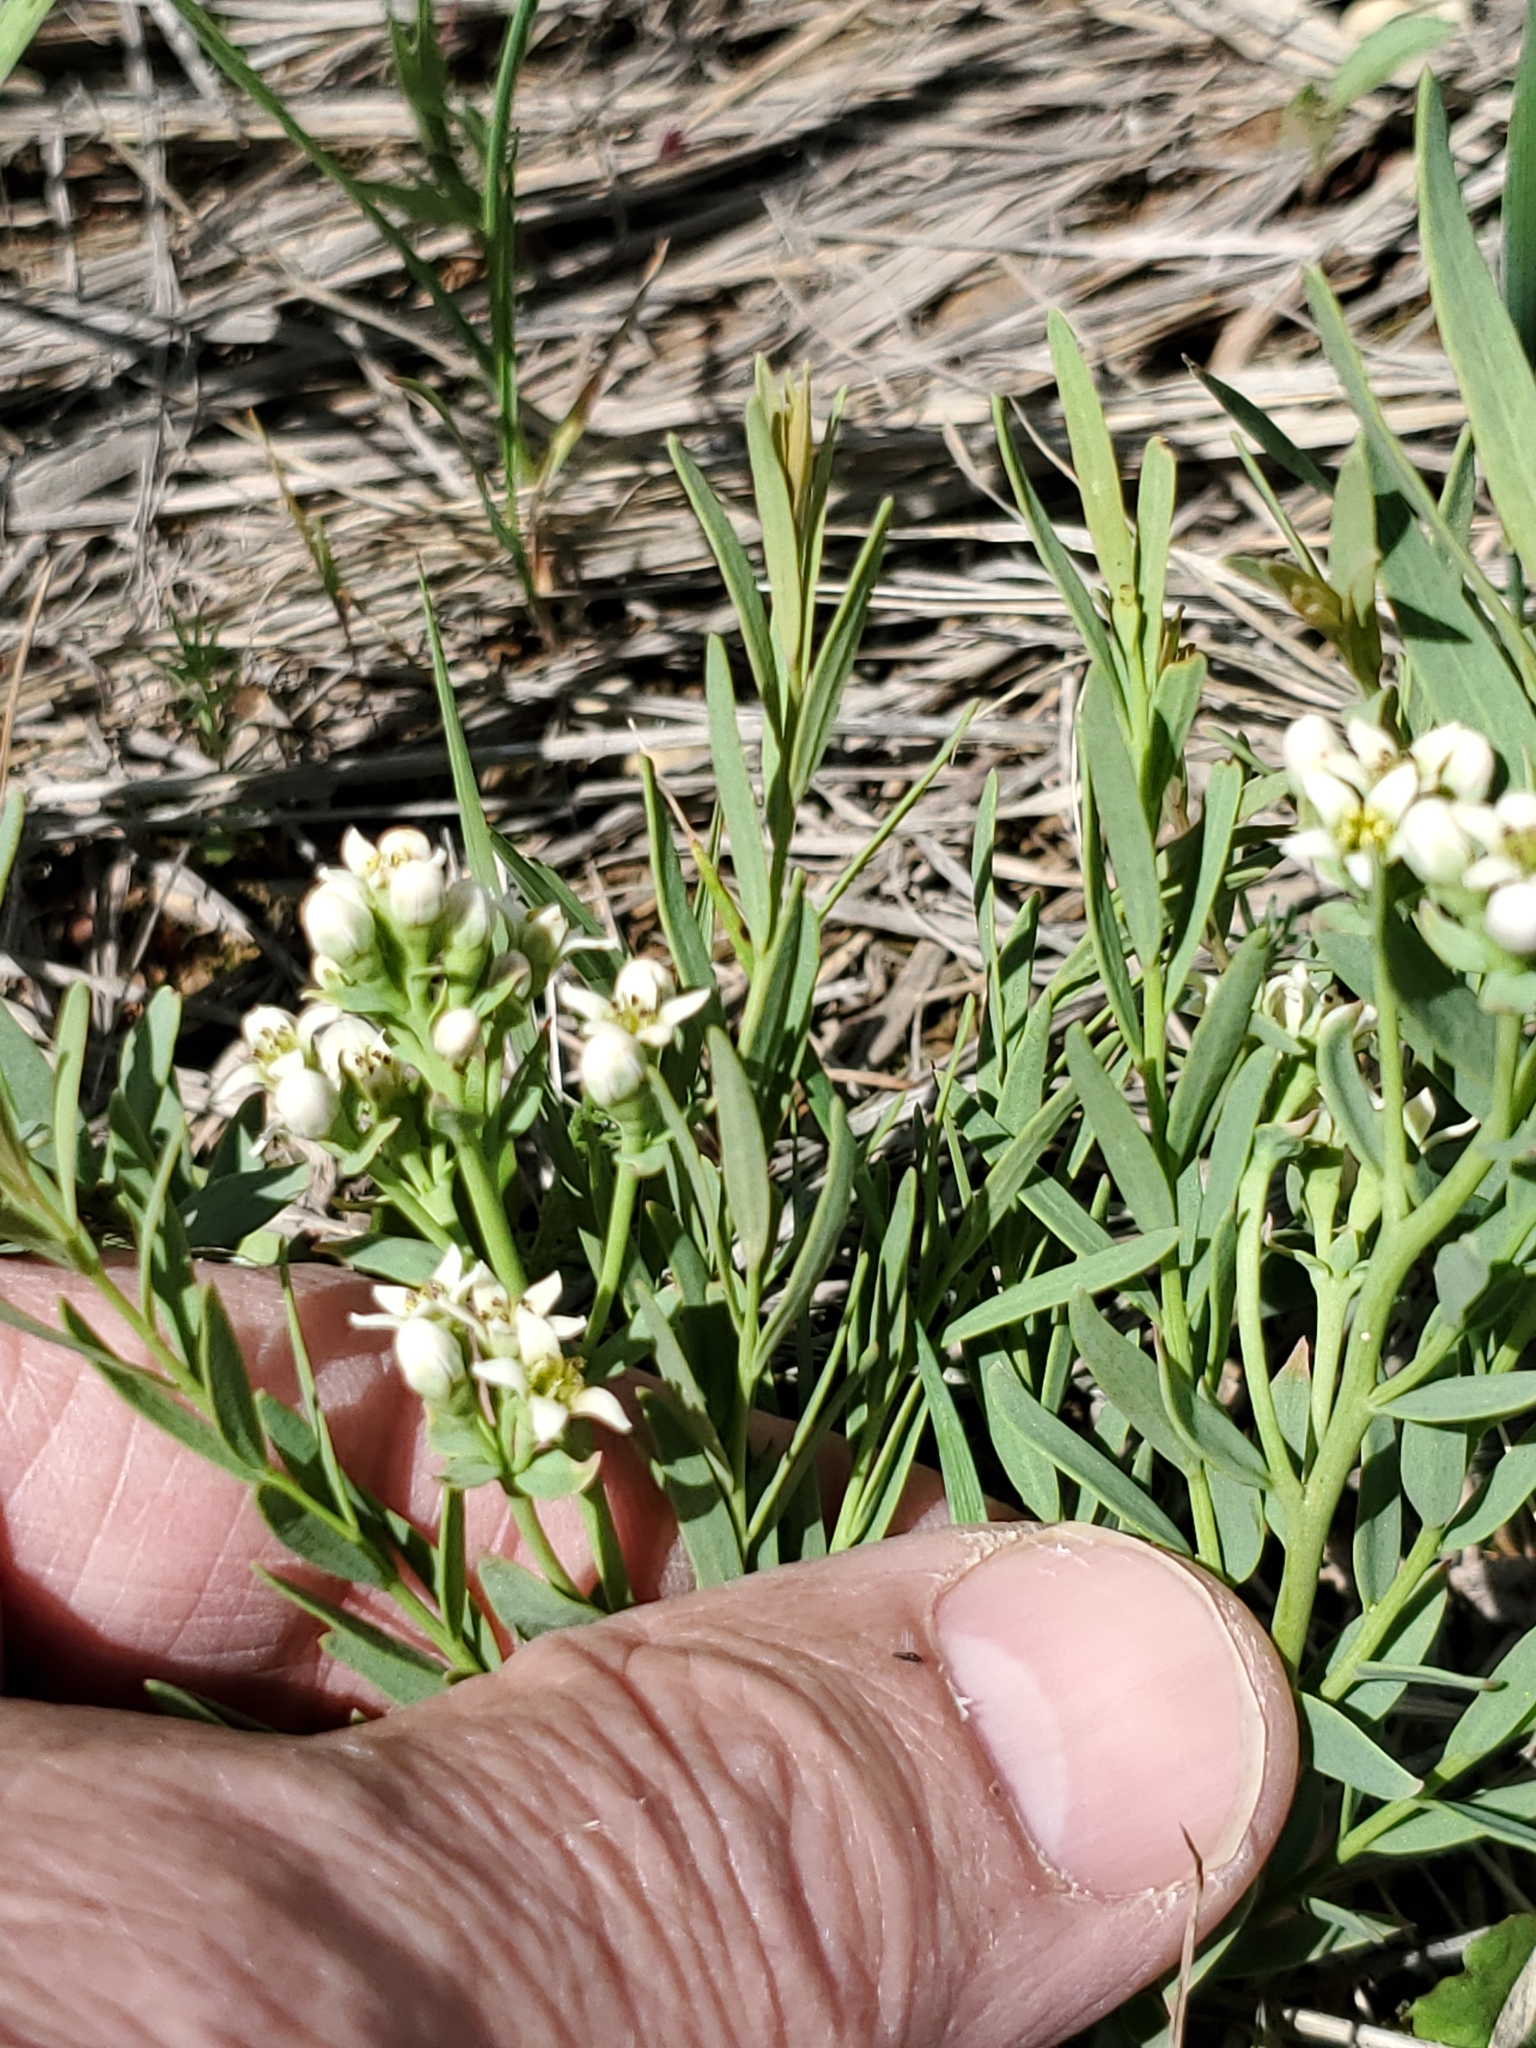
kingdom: Plantae
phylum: Tracheophyta
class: Magnoliopsida
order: Santalales
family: Comandraceae
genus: Comandra
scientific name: Comandra umbellata
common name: Bastard toadflax
